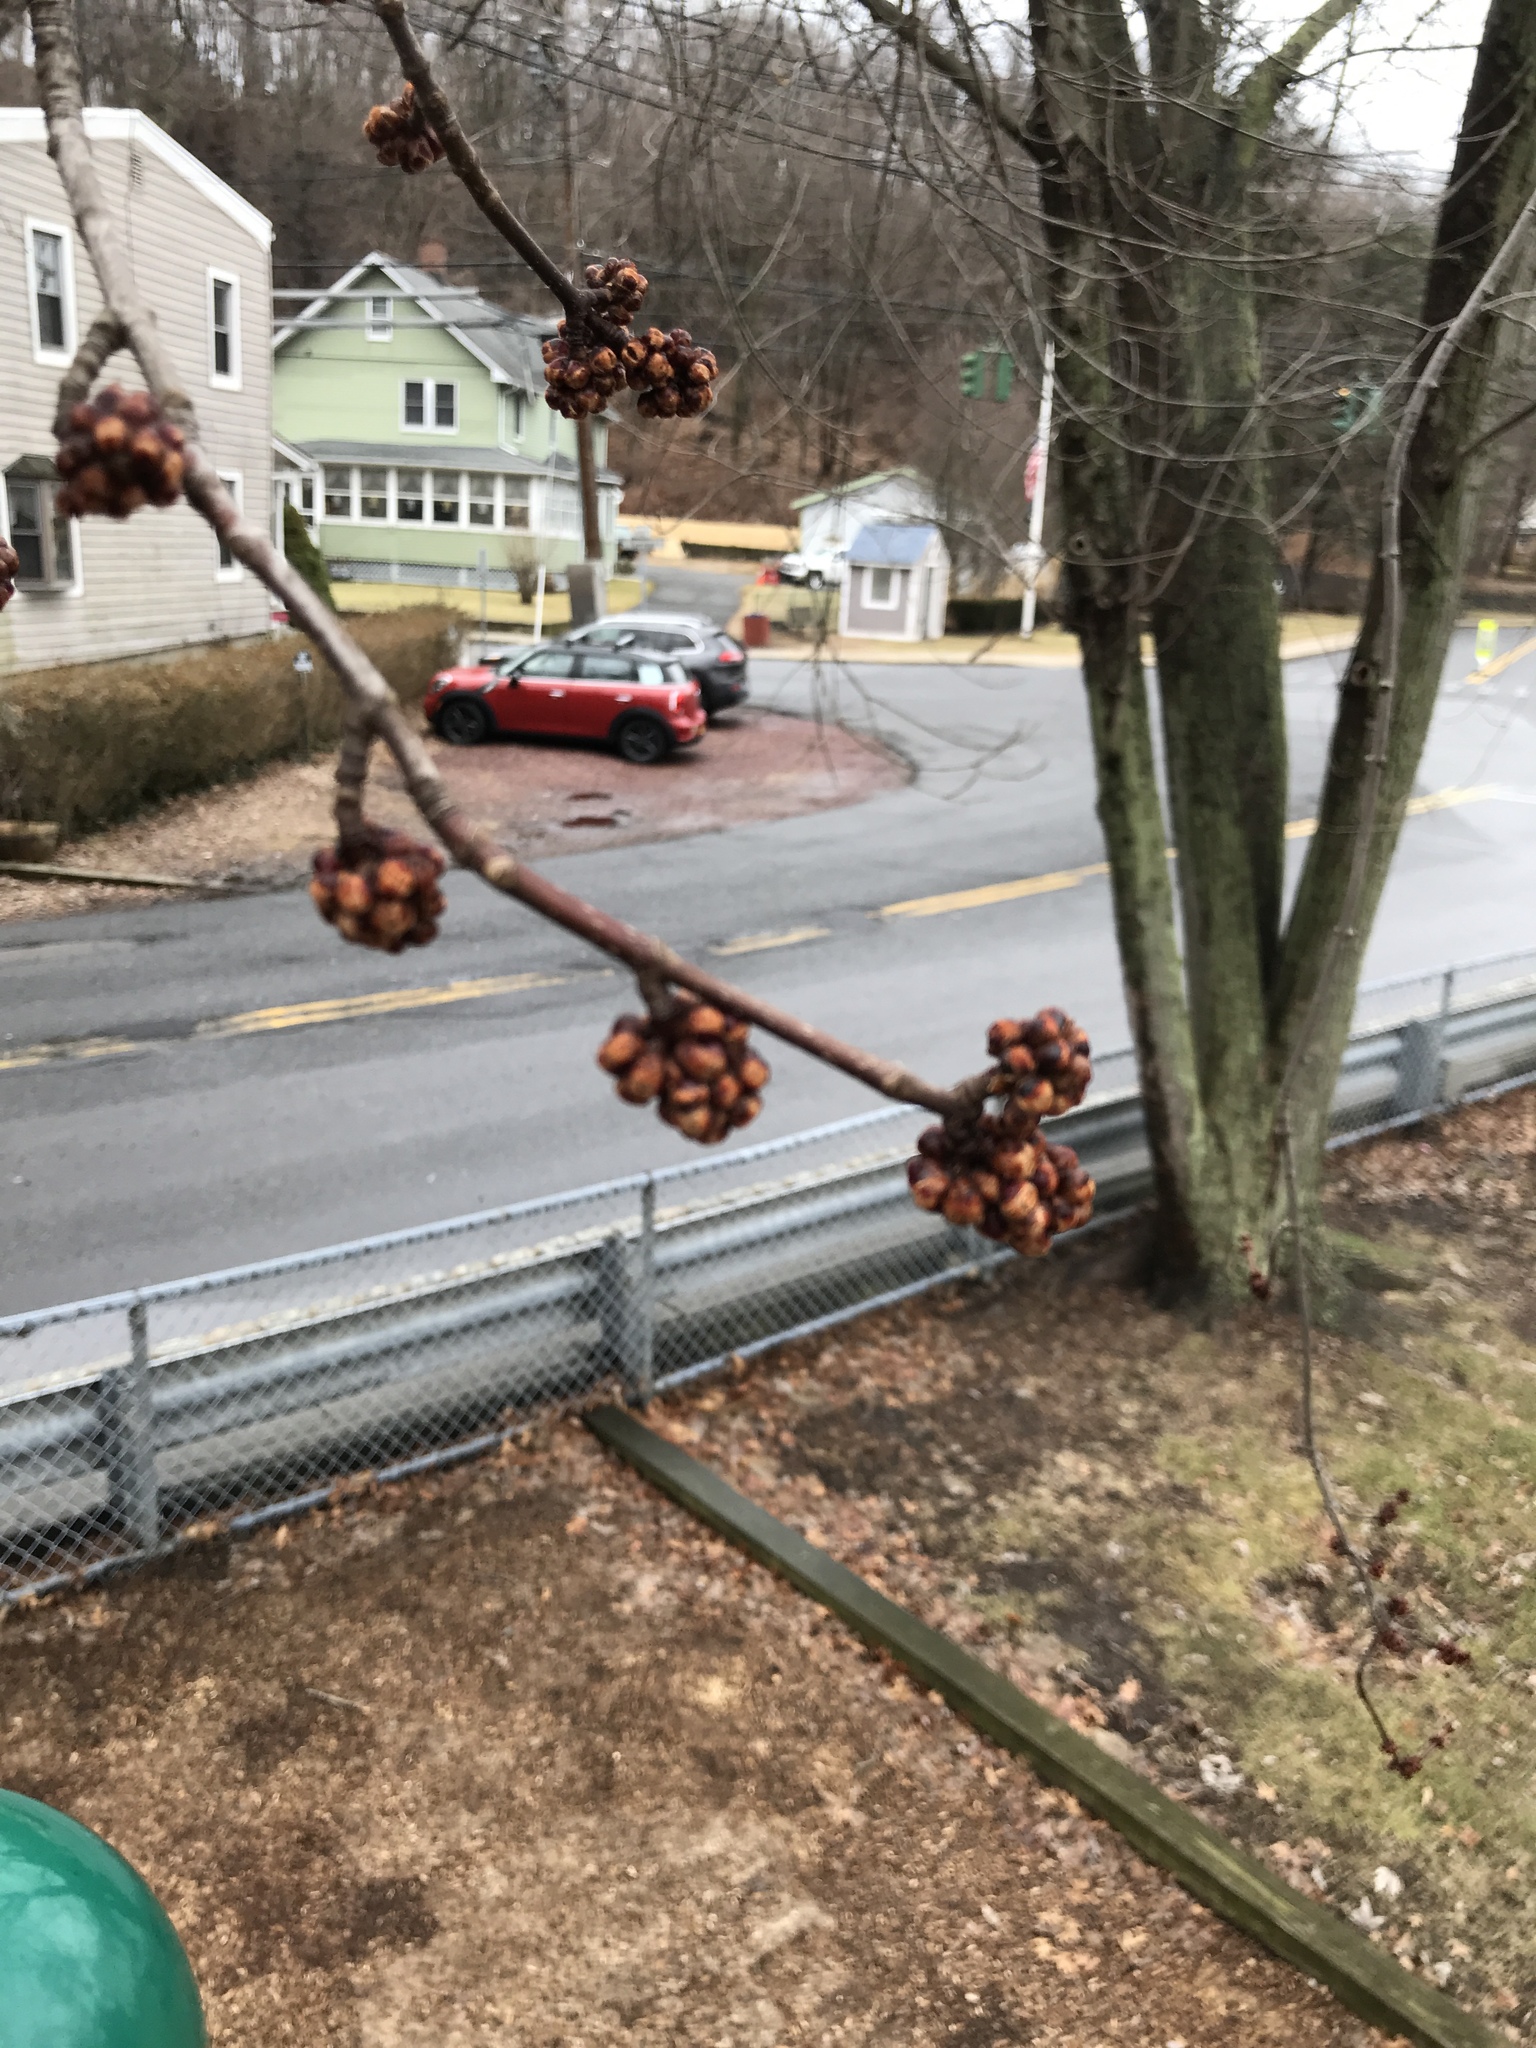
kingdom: Plantae
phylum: Tracheophyta
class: Magnoliopsida
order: Sapindales
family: Sapindaceae
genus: Acer
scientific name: Acer rubrum
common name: Red maple
